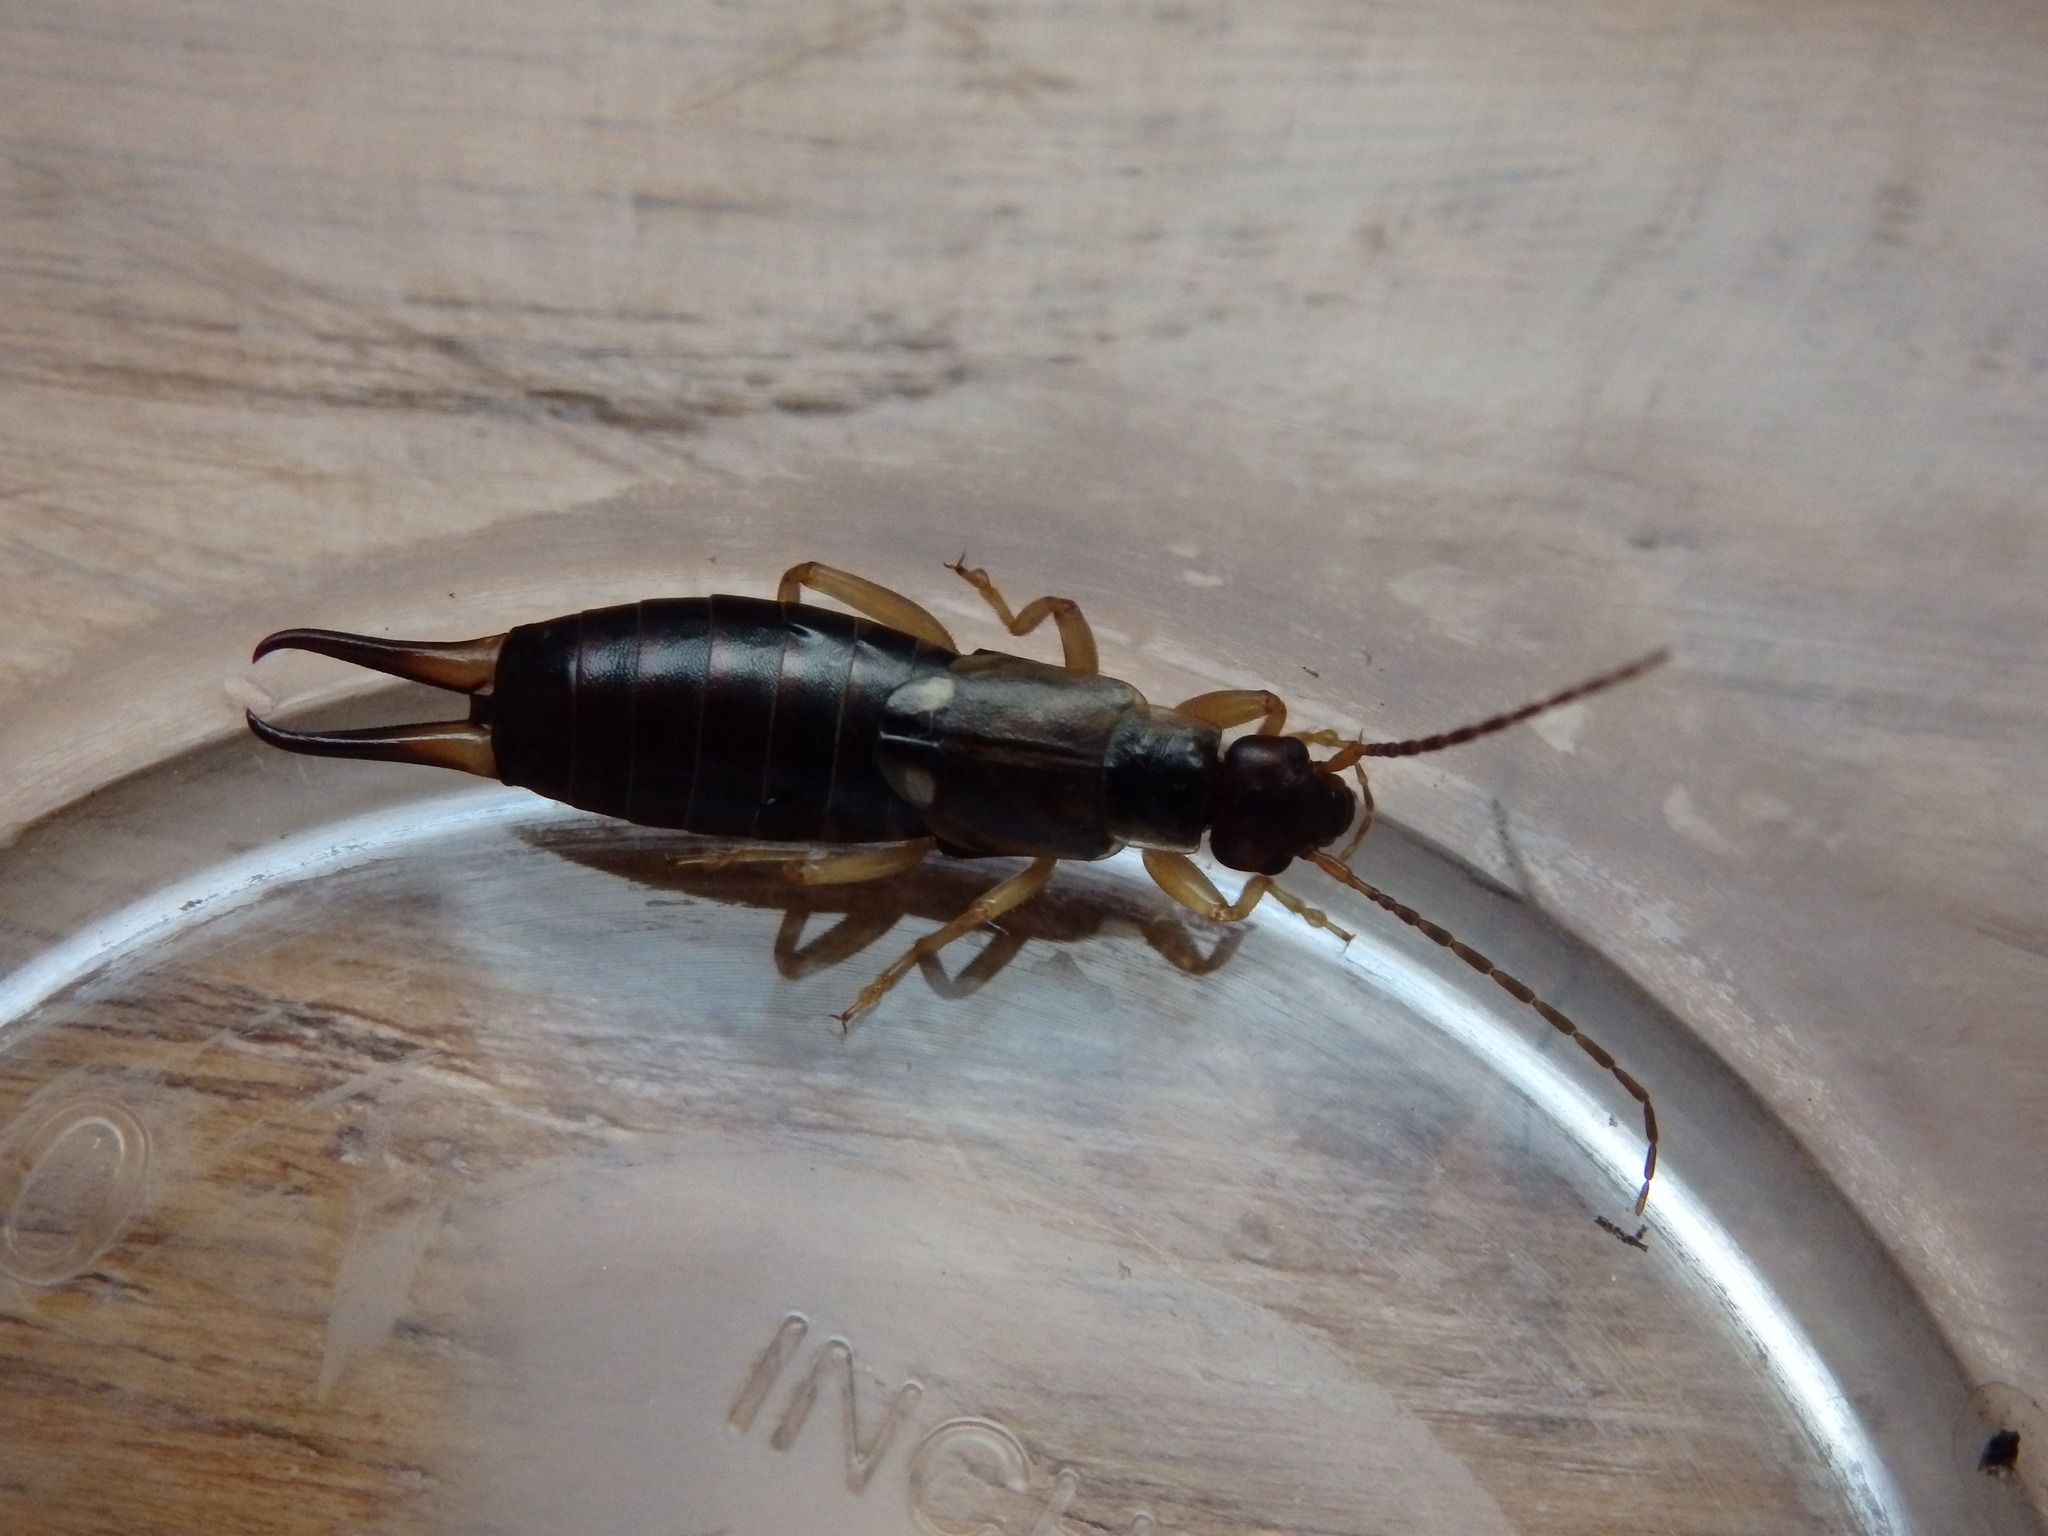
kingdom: Animalia
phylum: Arthropoda
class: Insecta
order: Dermaptera
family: Forficulidae
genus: Forficula
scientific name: Forficula
